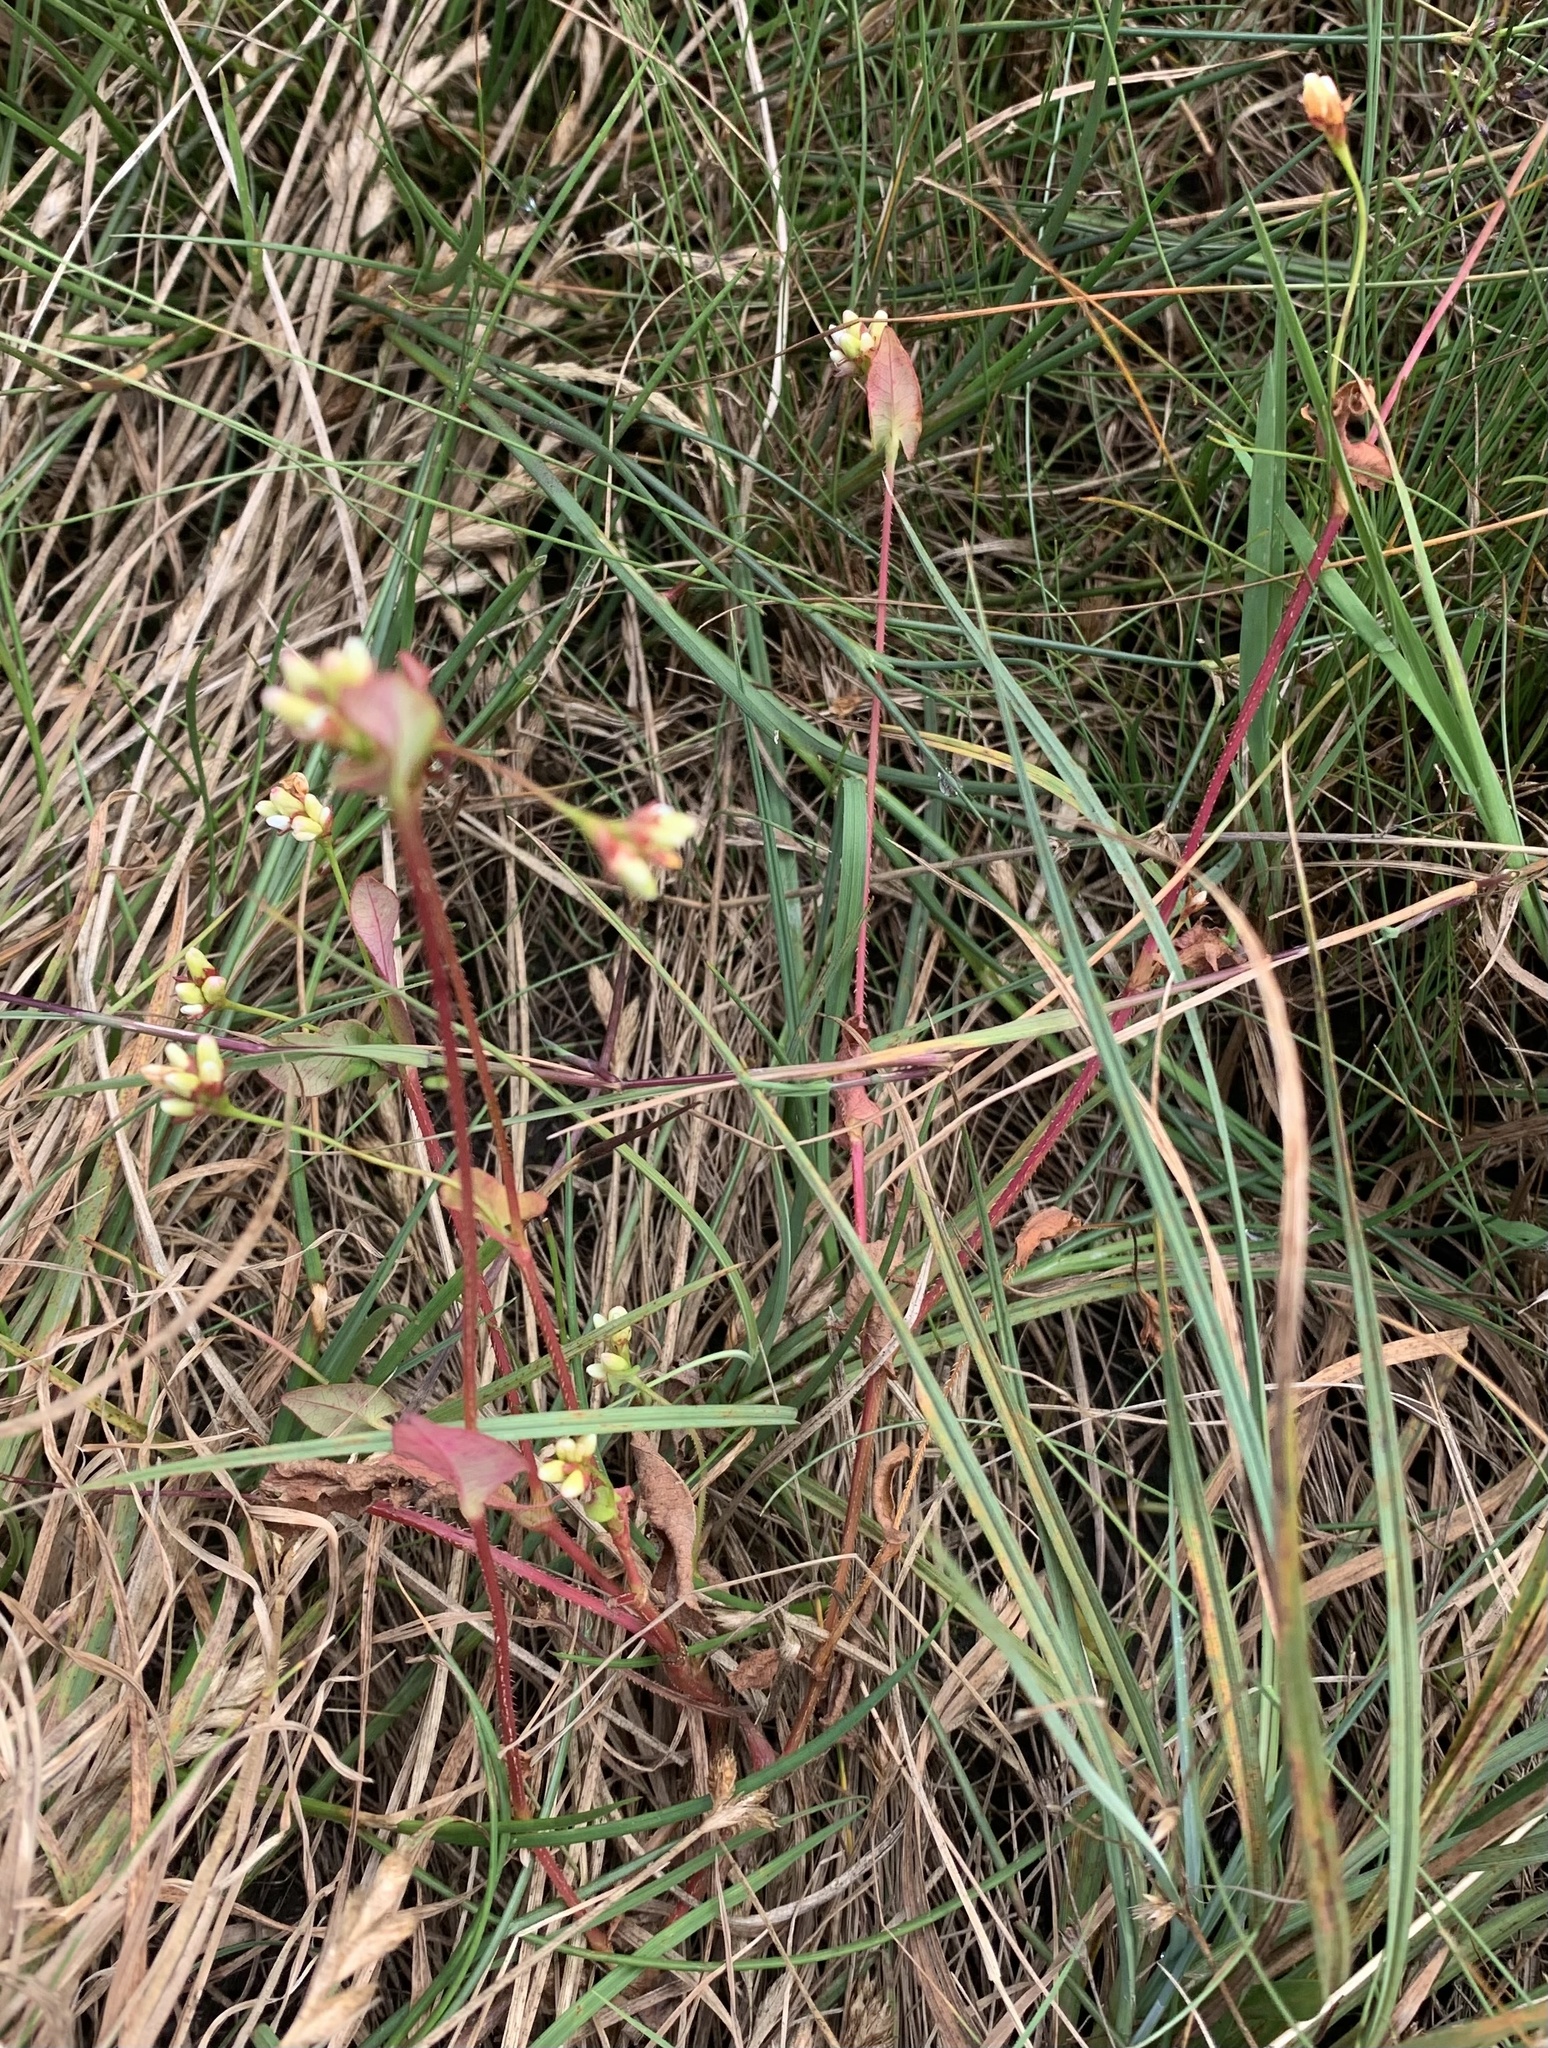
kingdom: Plantae
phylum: Tracheophyta
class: Magnoliopsida
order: Caryophyllales
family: Polygonaceae
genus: Persicaria
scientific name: Persicaria sagittata
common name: American tearthumb
